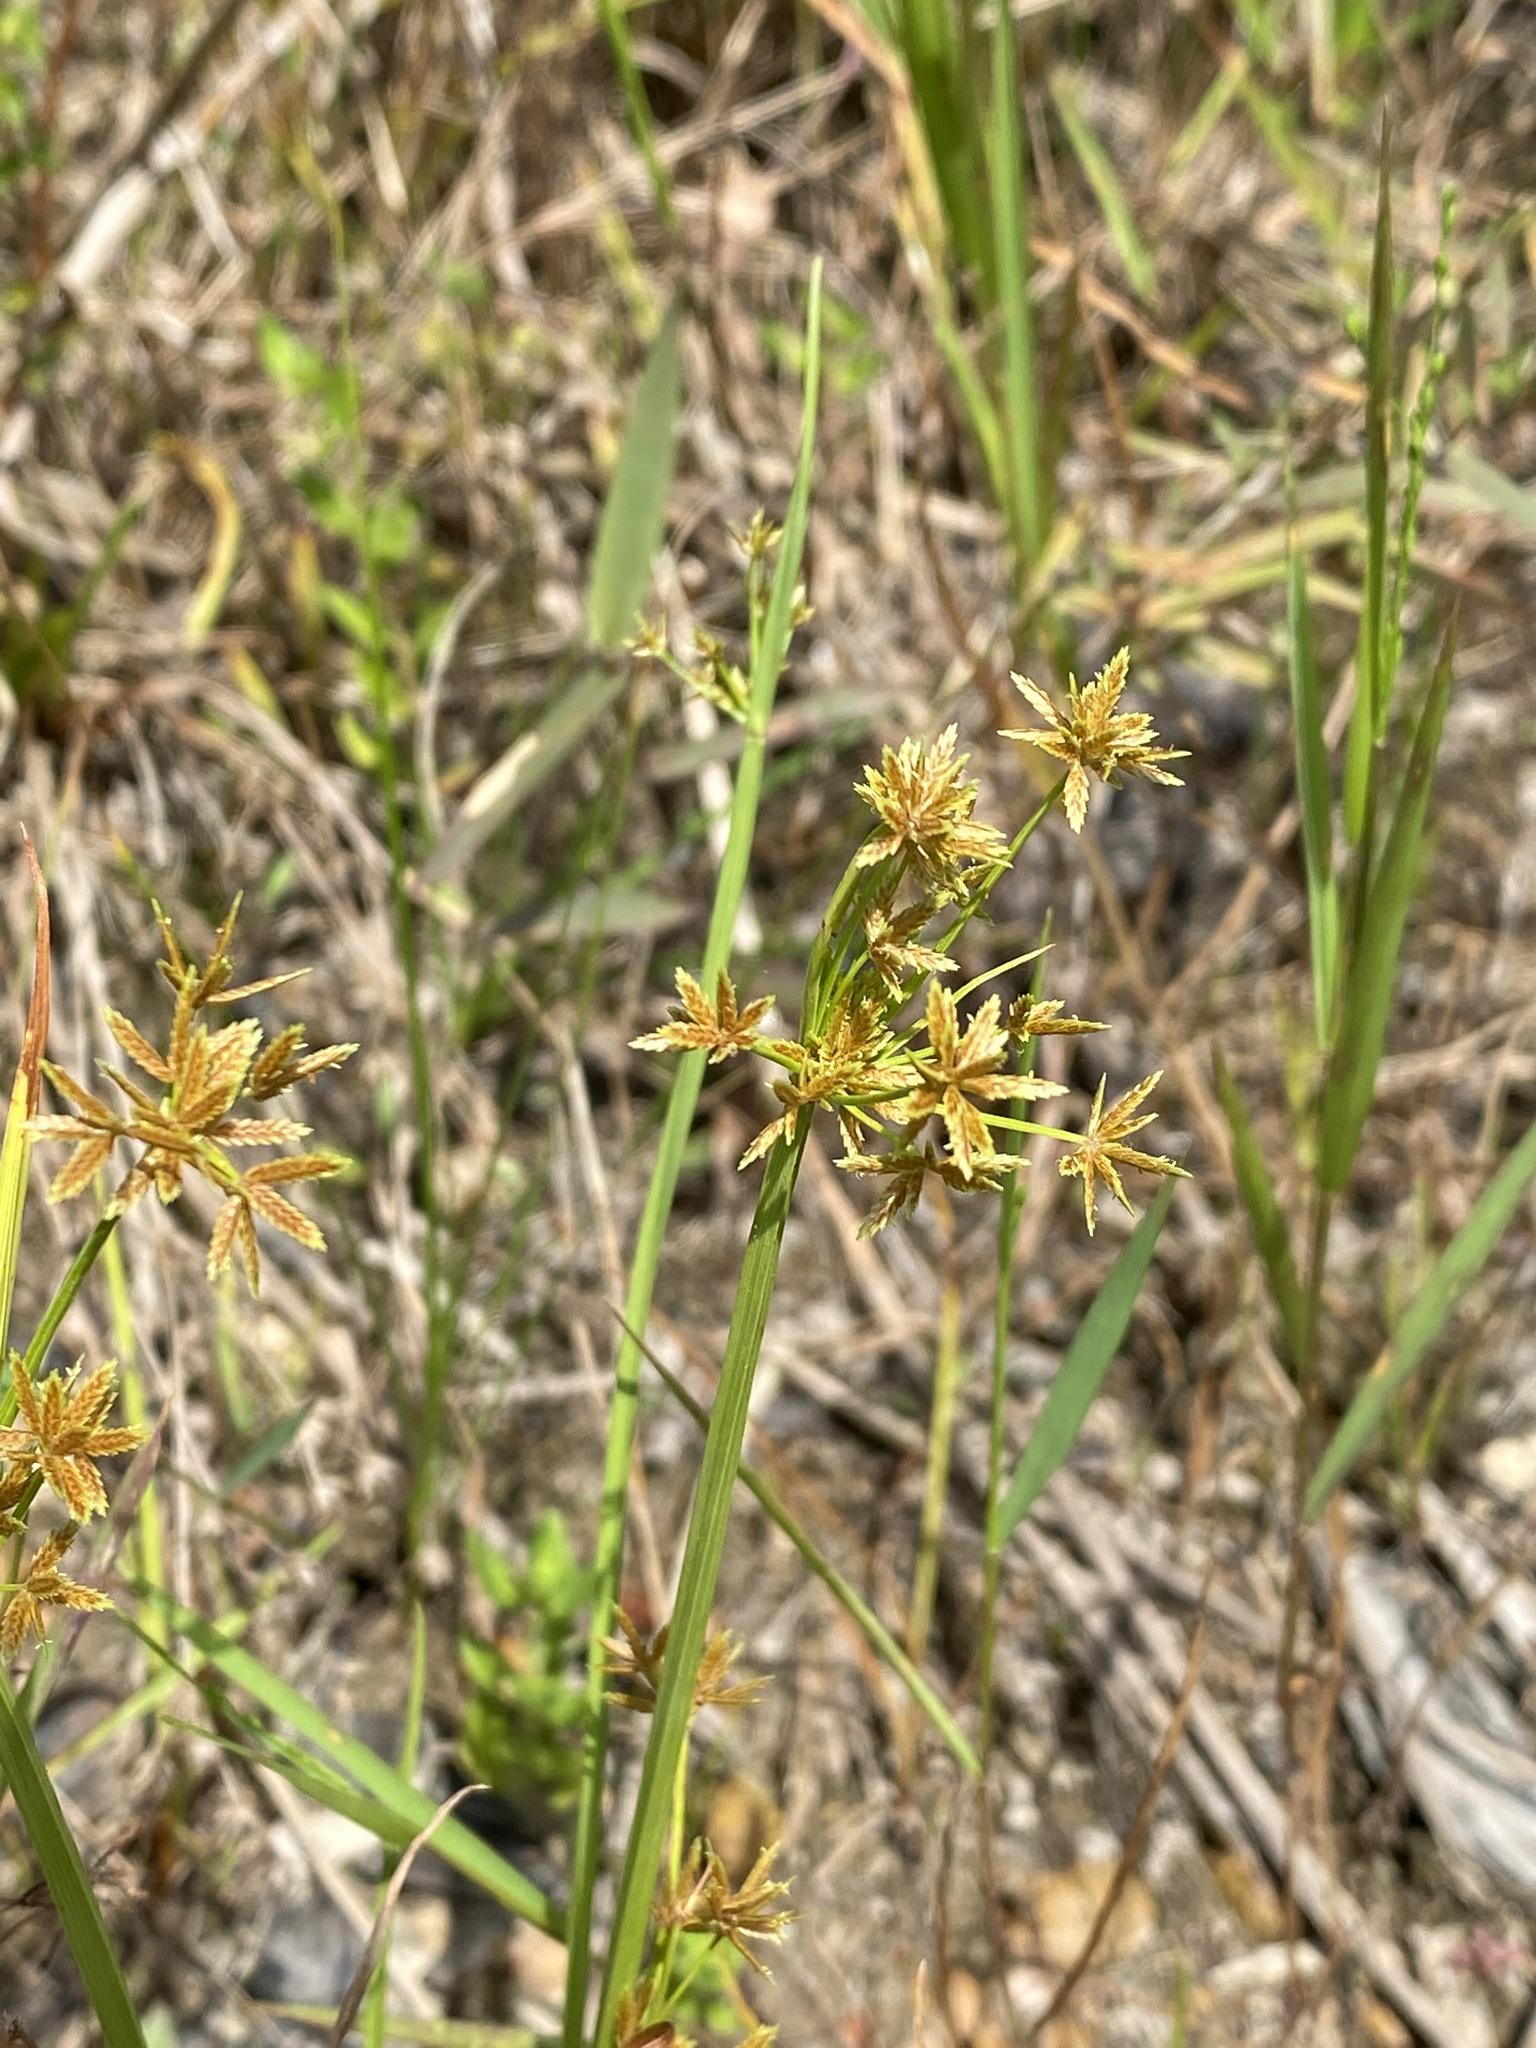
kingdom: Plantae
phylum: Tracheophyta
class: Liliopsida
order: Poales
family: Cyperaceae
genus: Cyperus
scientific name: Cyperus haspan
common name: Haspan flatsedge
